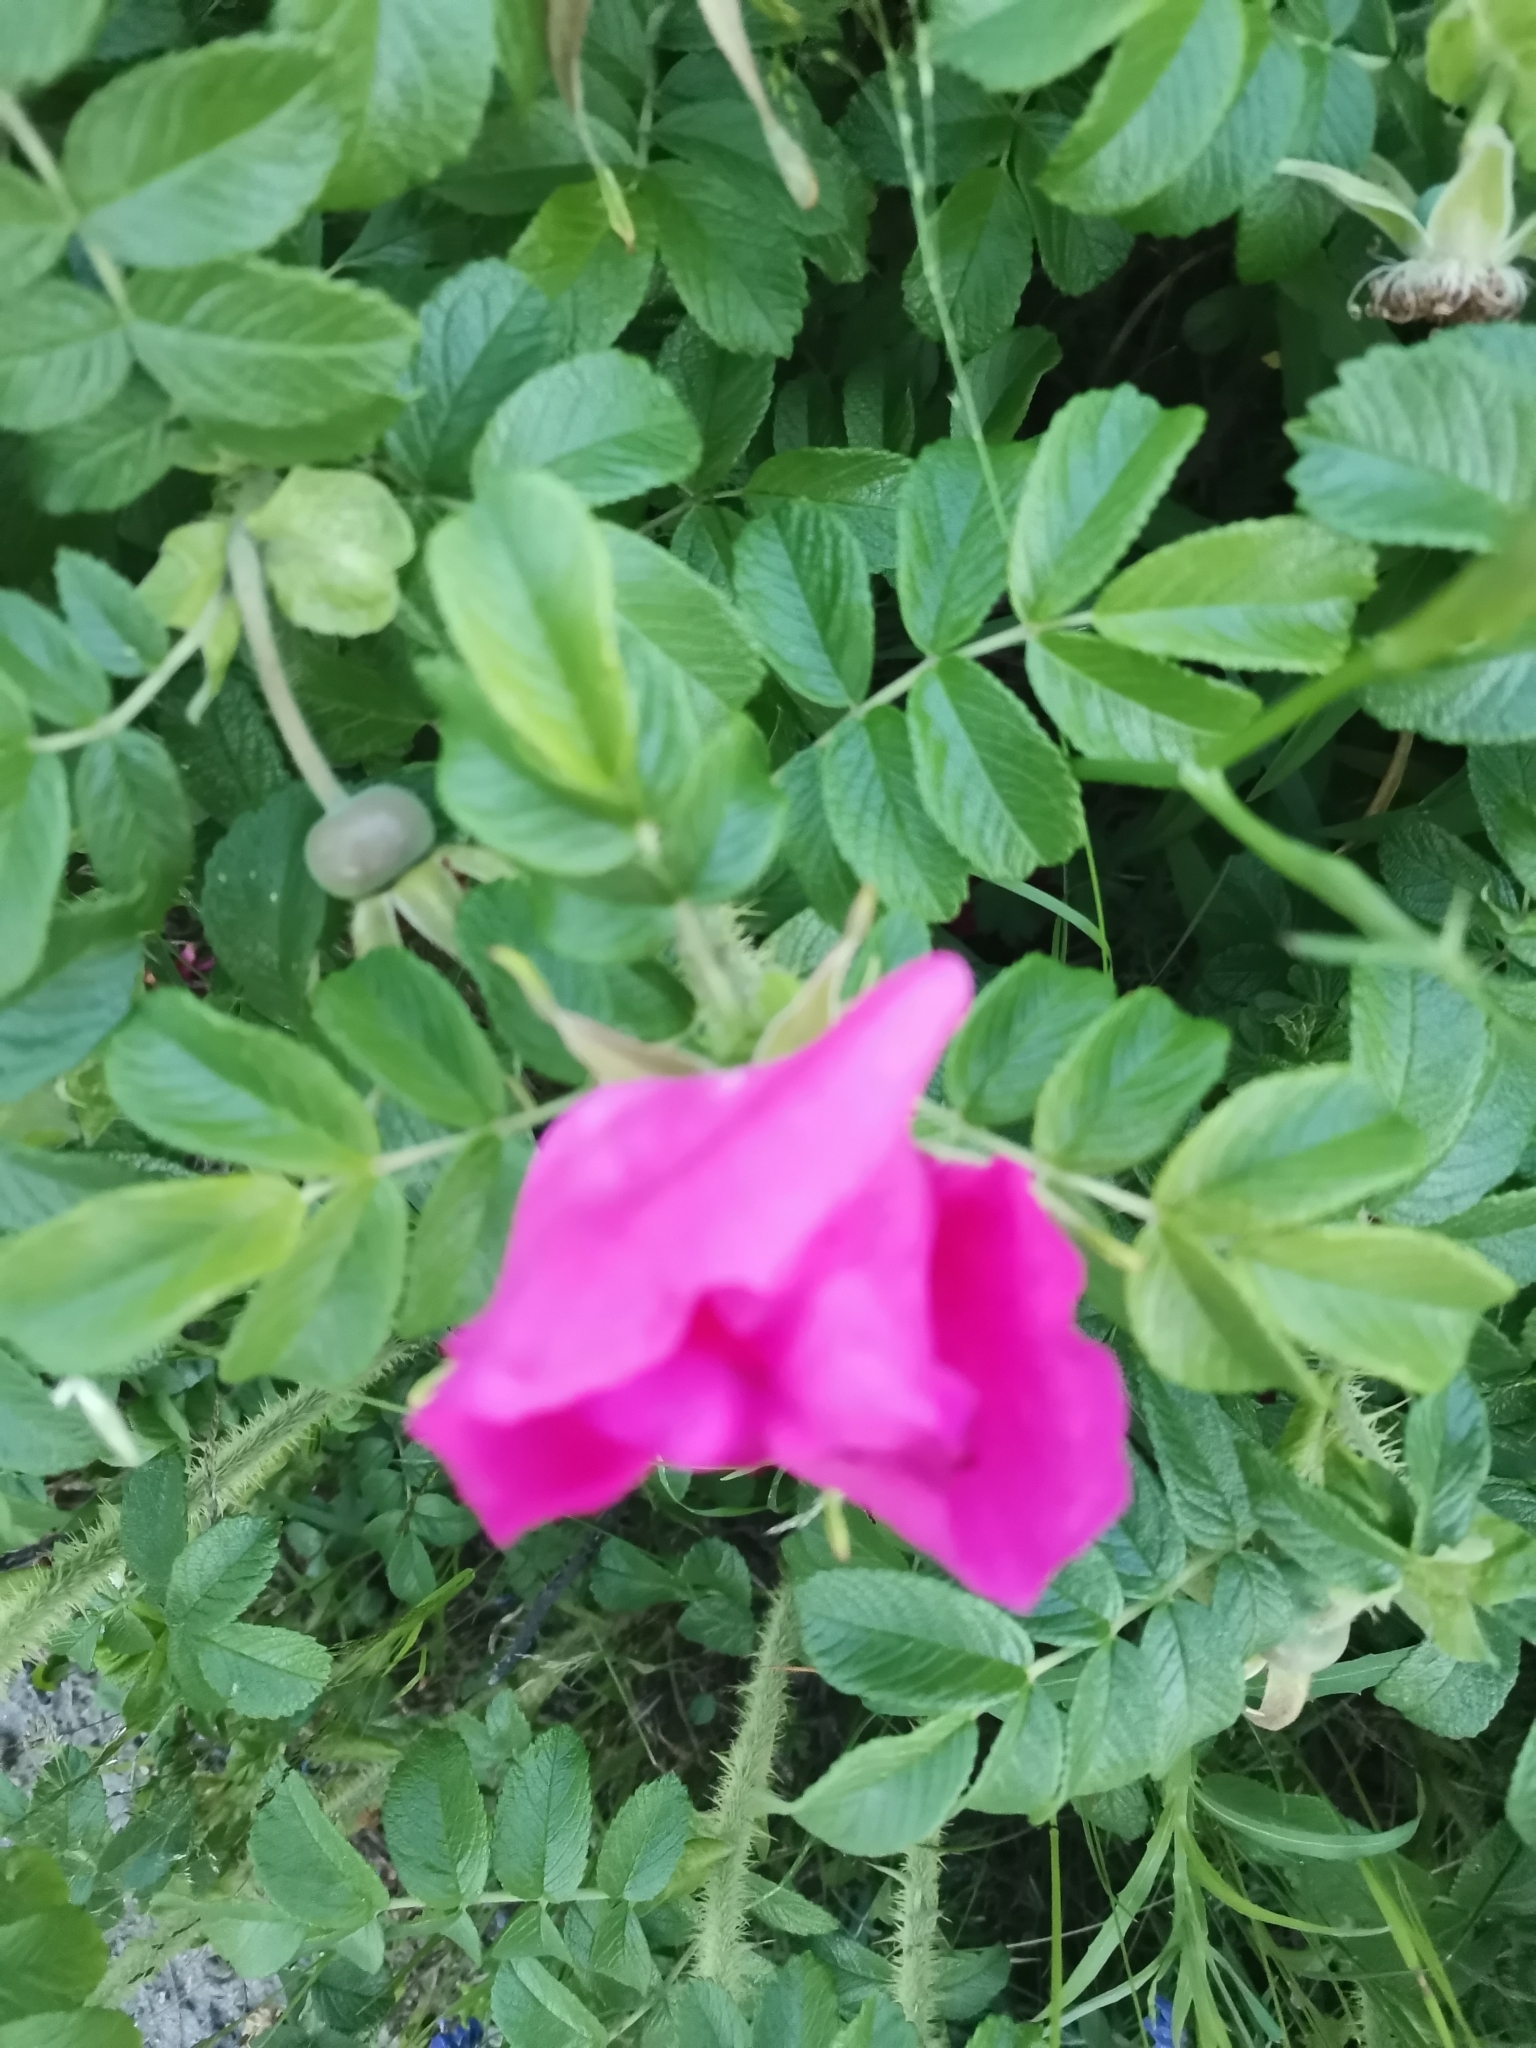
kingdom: Plantae
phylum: Tracheophyta
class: Magnoliopsida
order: Rosales
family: Rosaceae
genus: Rosa
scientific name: Rosa rugosa
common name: Japanese rose
